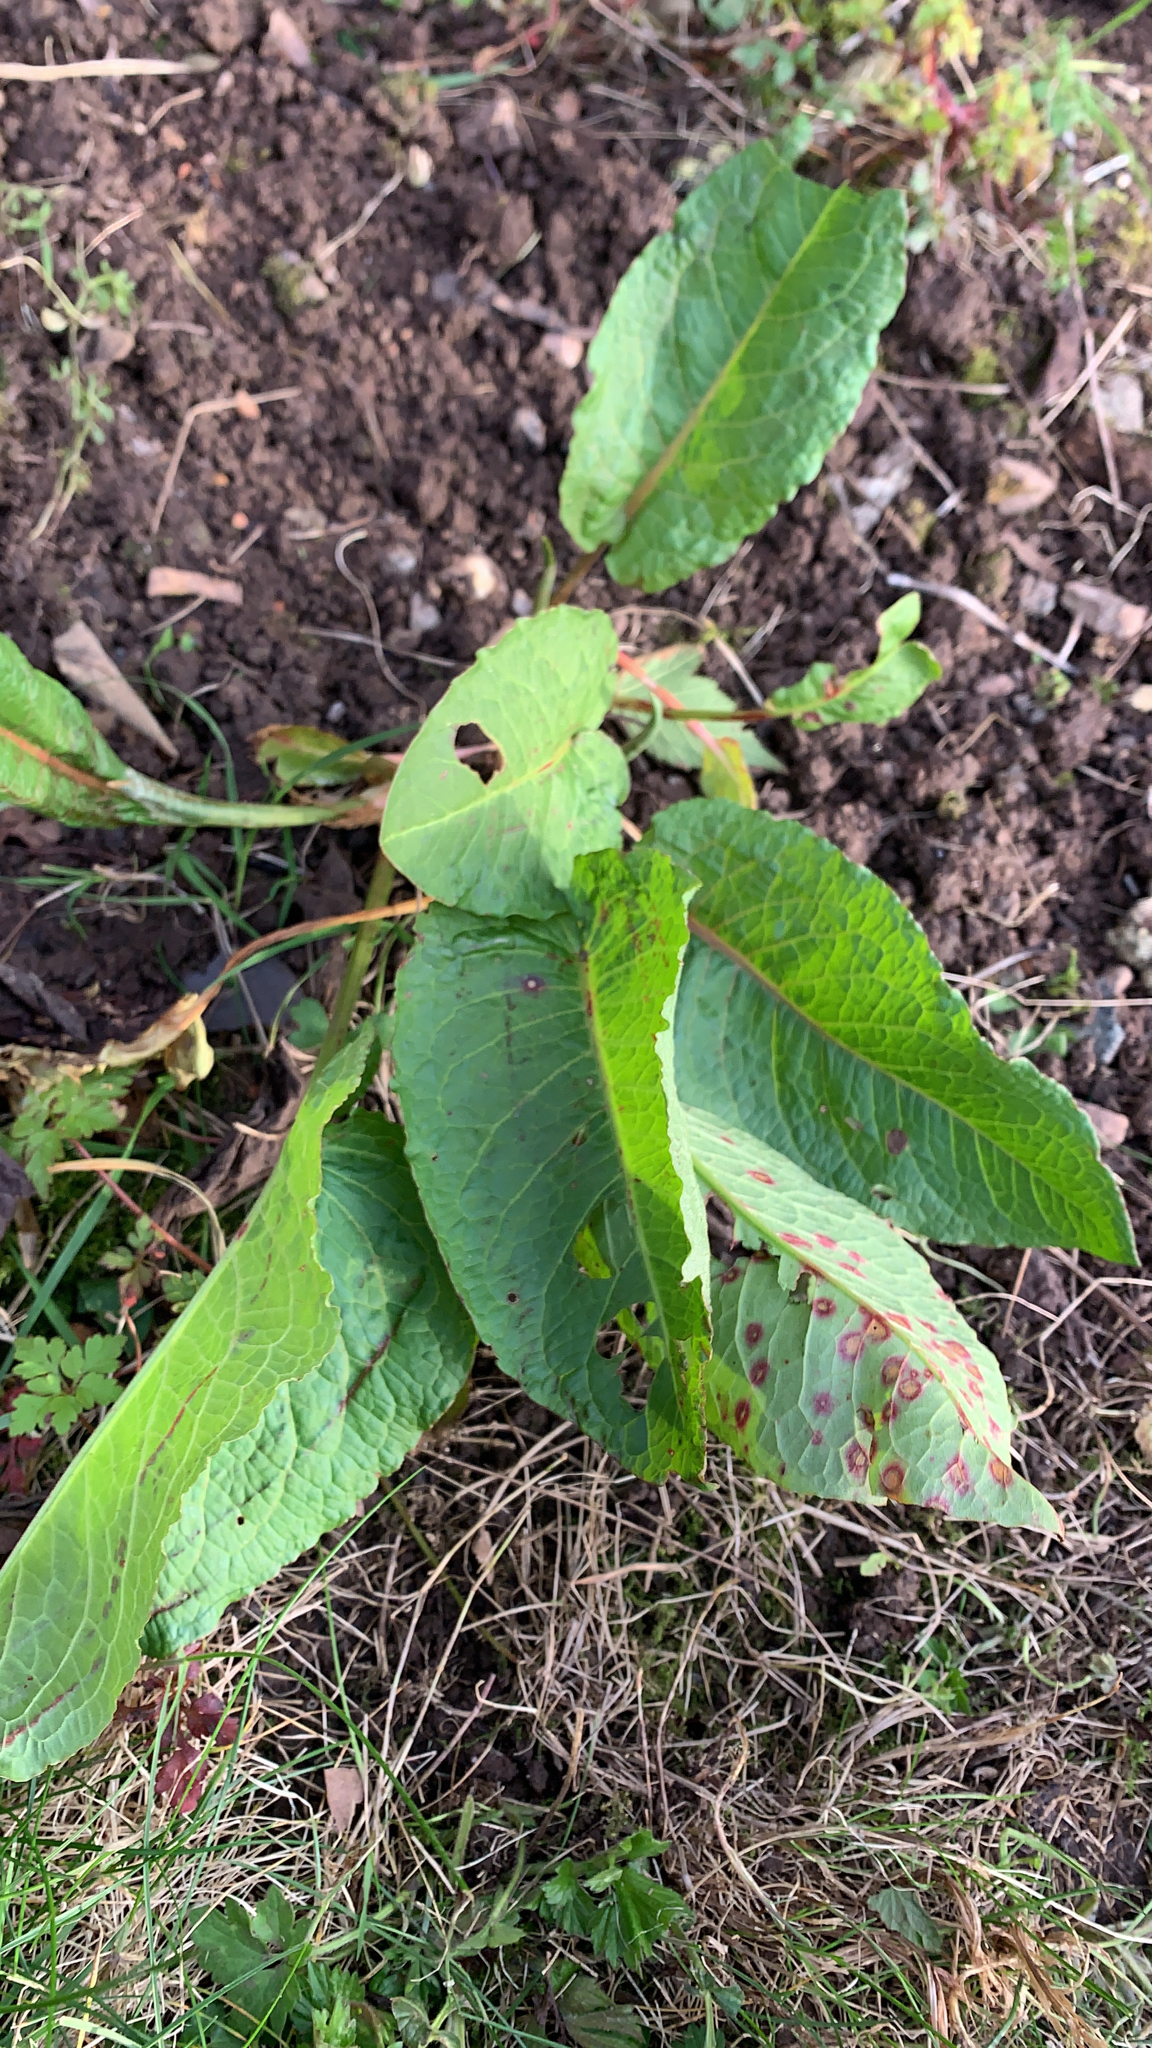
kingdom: Plantae
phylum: Tracheophyta
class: Magnoliopsida
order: Caryophyllales
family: Polygonaceae
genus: Rumex
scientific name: Rumex obtusifolius
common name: Bitter dock
